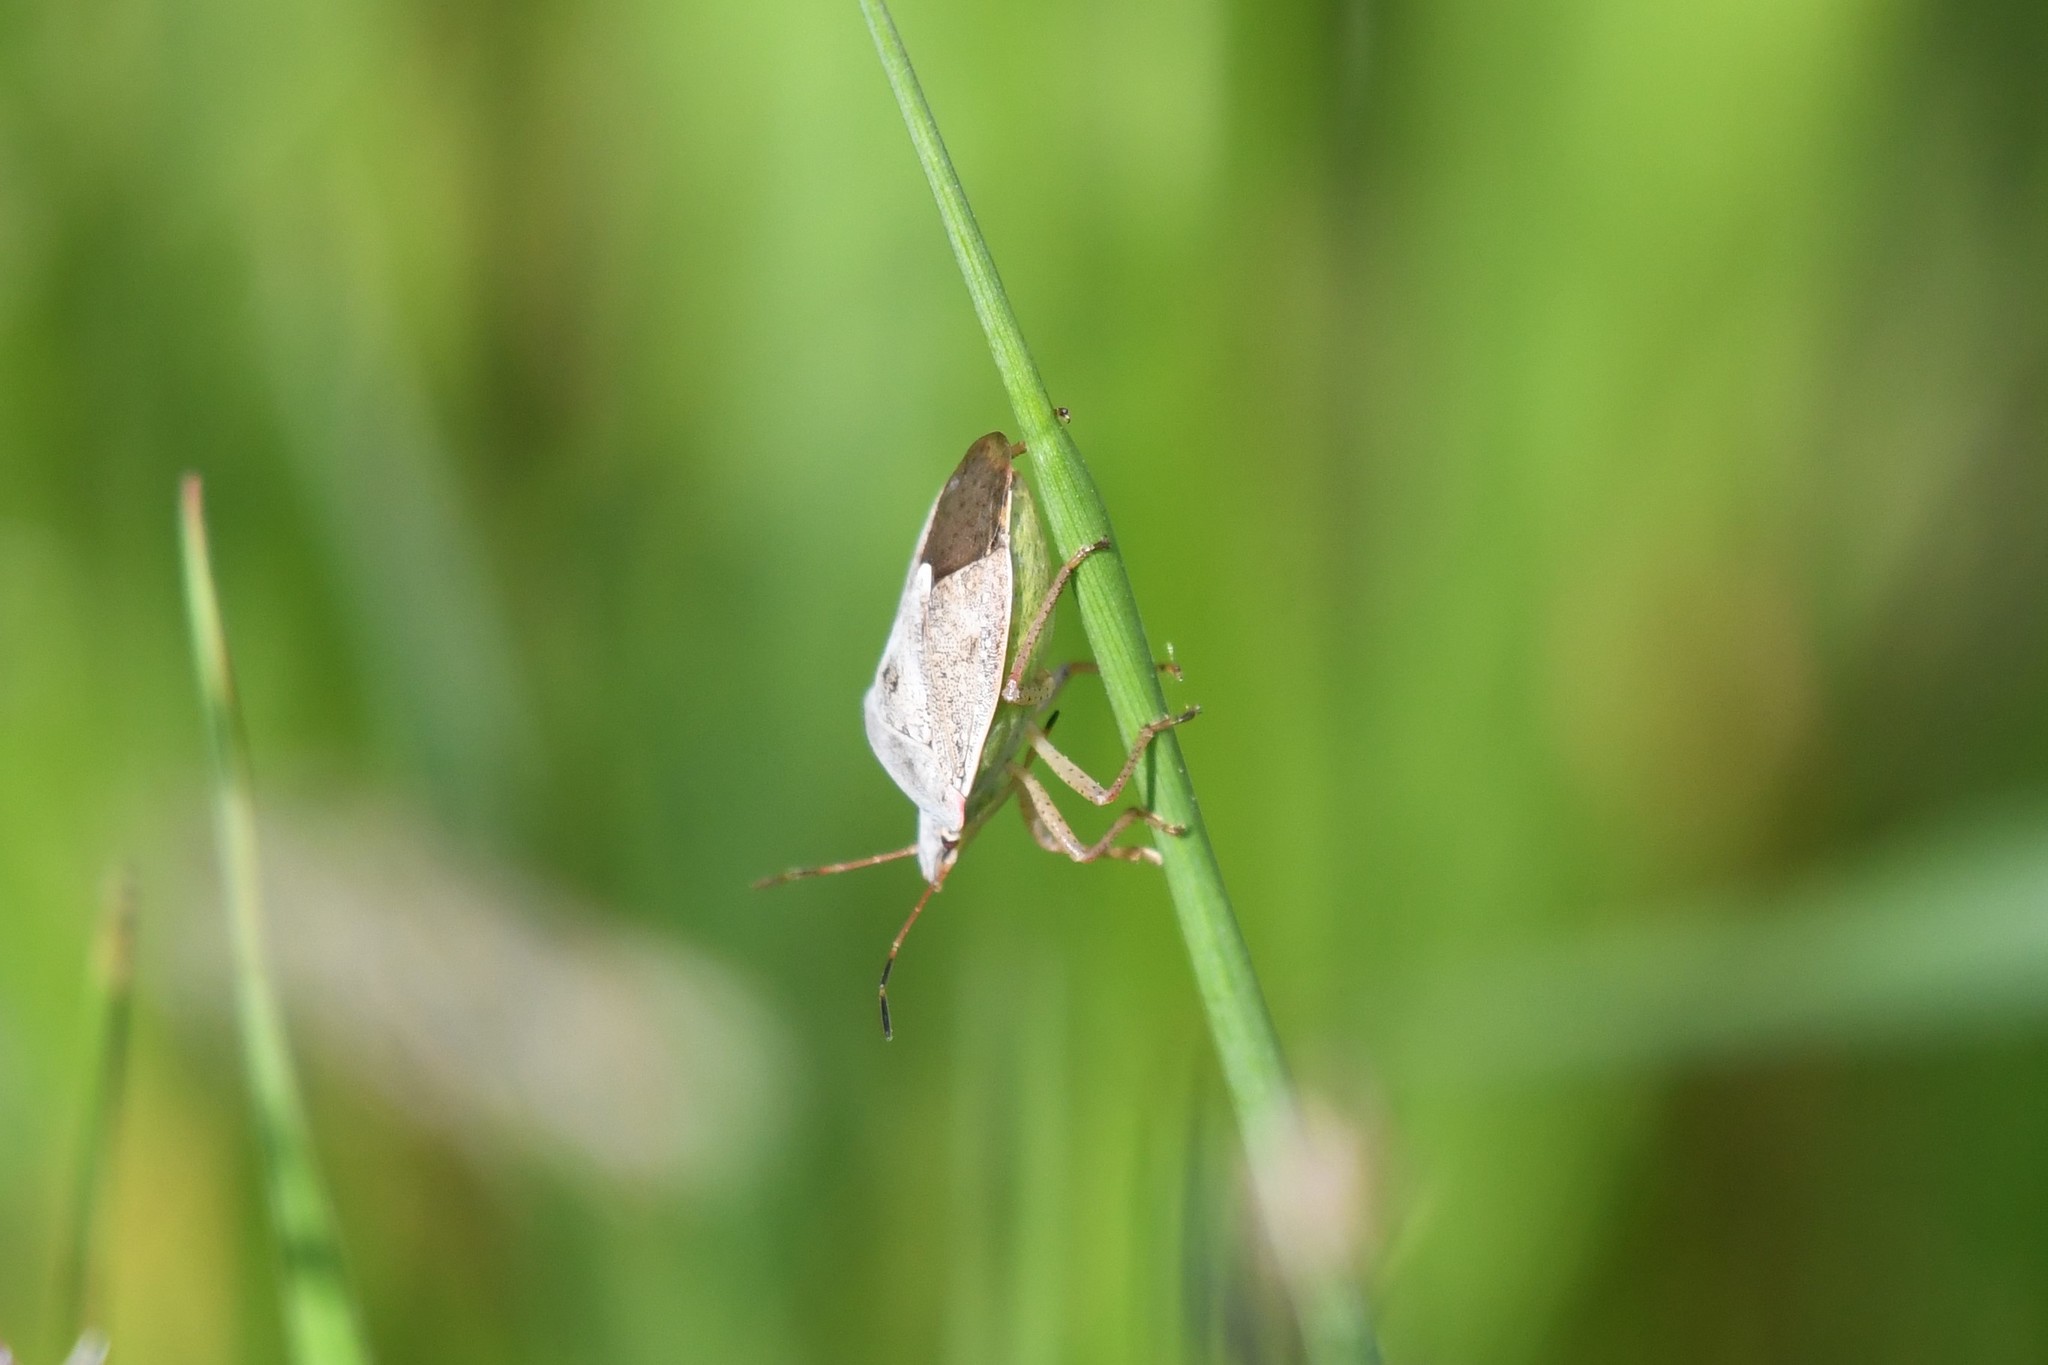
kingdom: Animalia
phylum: Arthropoda
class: Insecta
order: Hemiptera
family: Pentatomidae
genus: Euschistus
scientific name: Euschistus servus
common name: Brown stink bug
